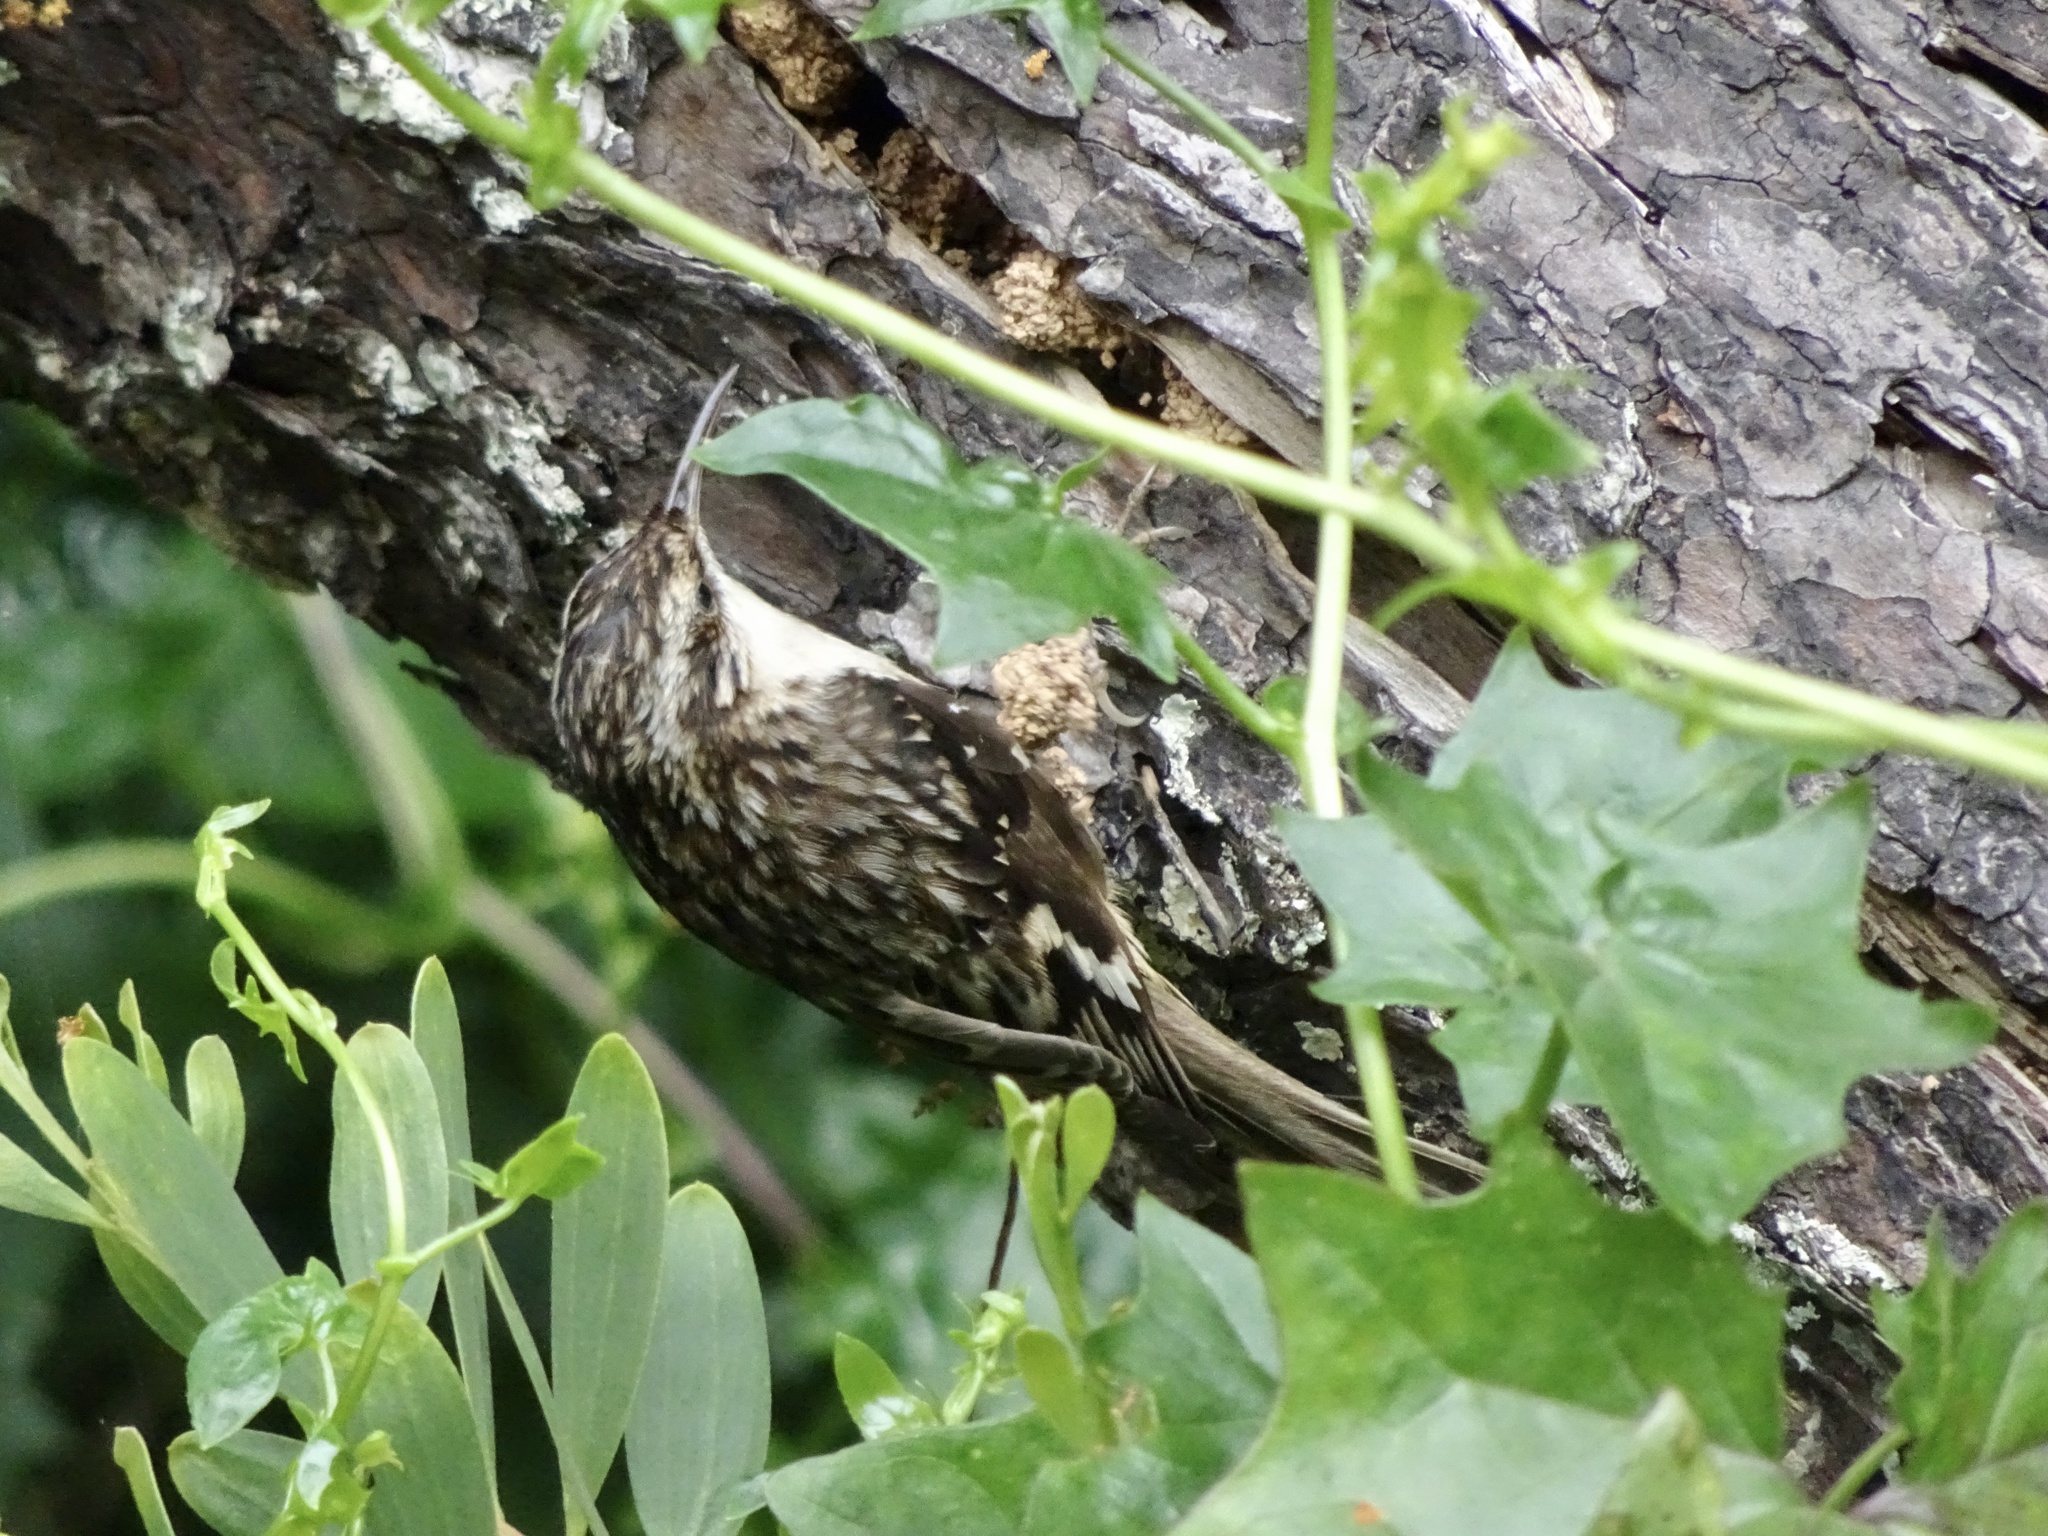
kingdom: Animalia
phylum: Chordata
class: Aves
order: Passeriformes
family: Certhiidae
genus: Certhia
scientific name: Certhia americana
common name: Brown creeper
